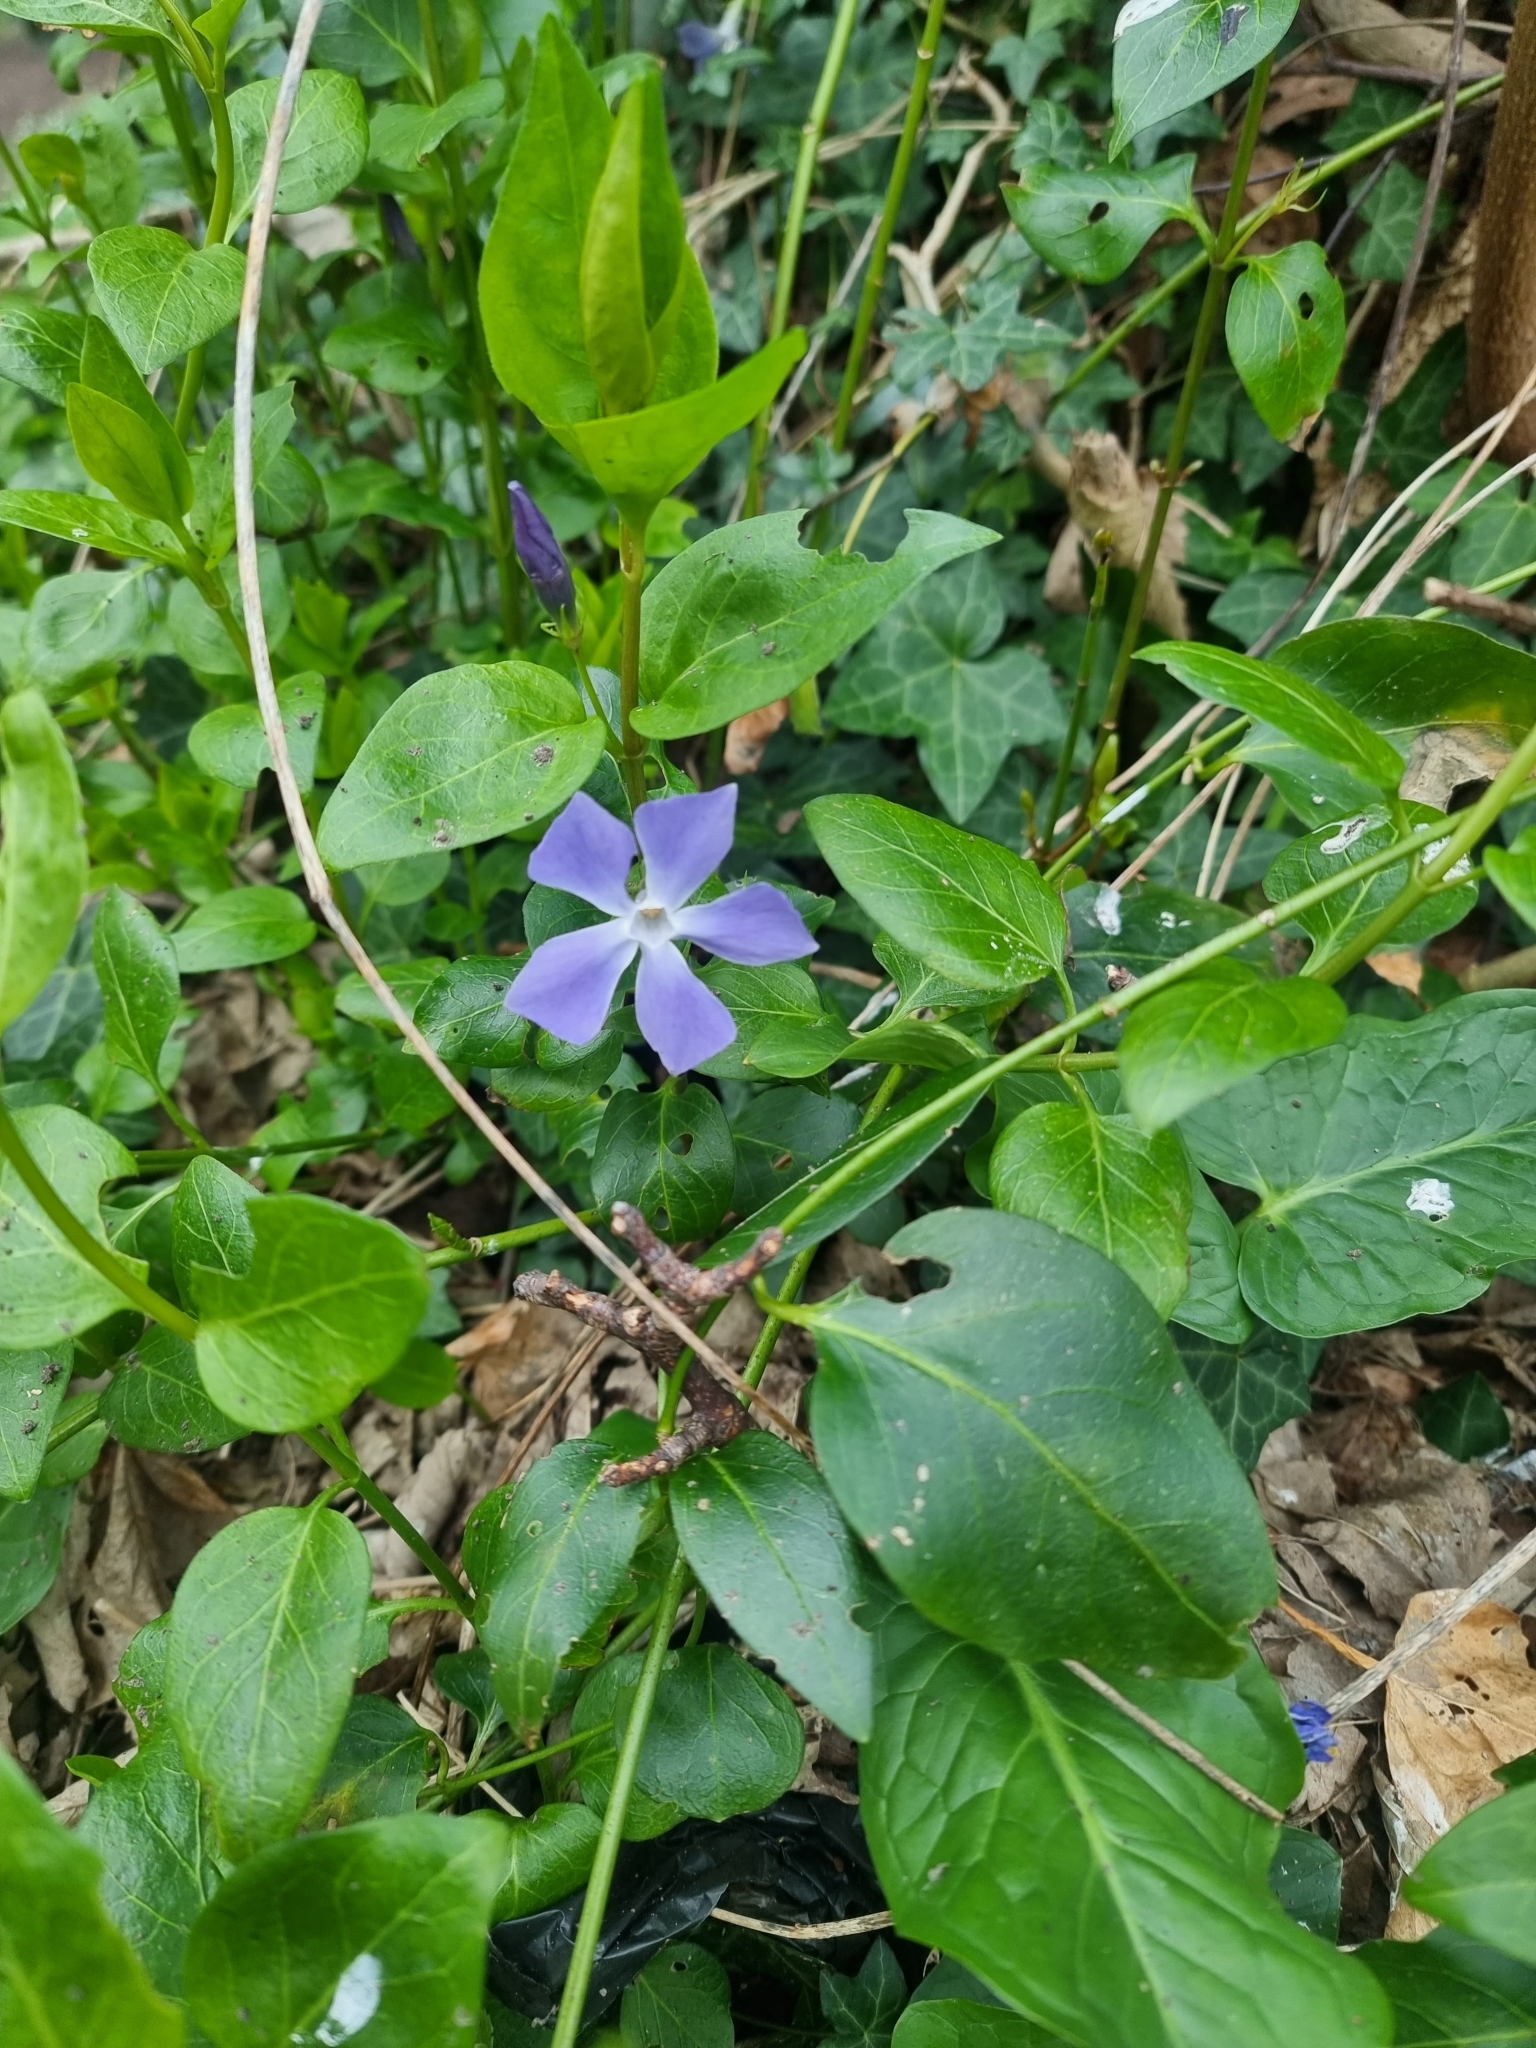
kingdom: Plantae
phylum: Tracheophyta
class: Magnoliopsida
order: Gentianales
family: Apocynaceae
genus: Vinca
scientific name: Vinca major
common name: Greater periwinkle
